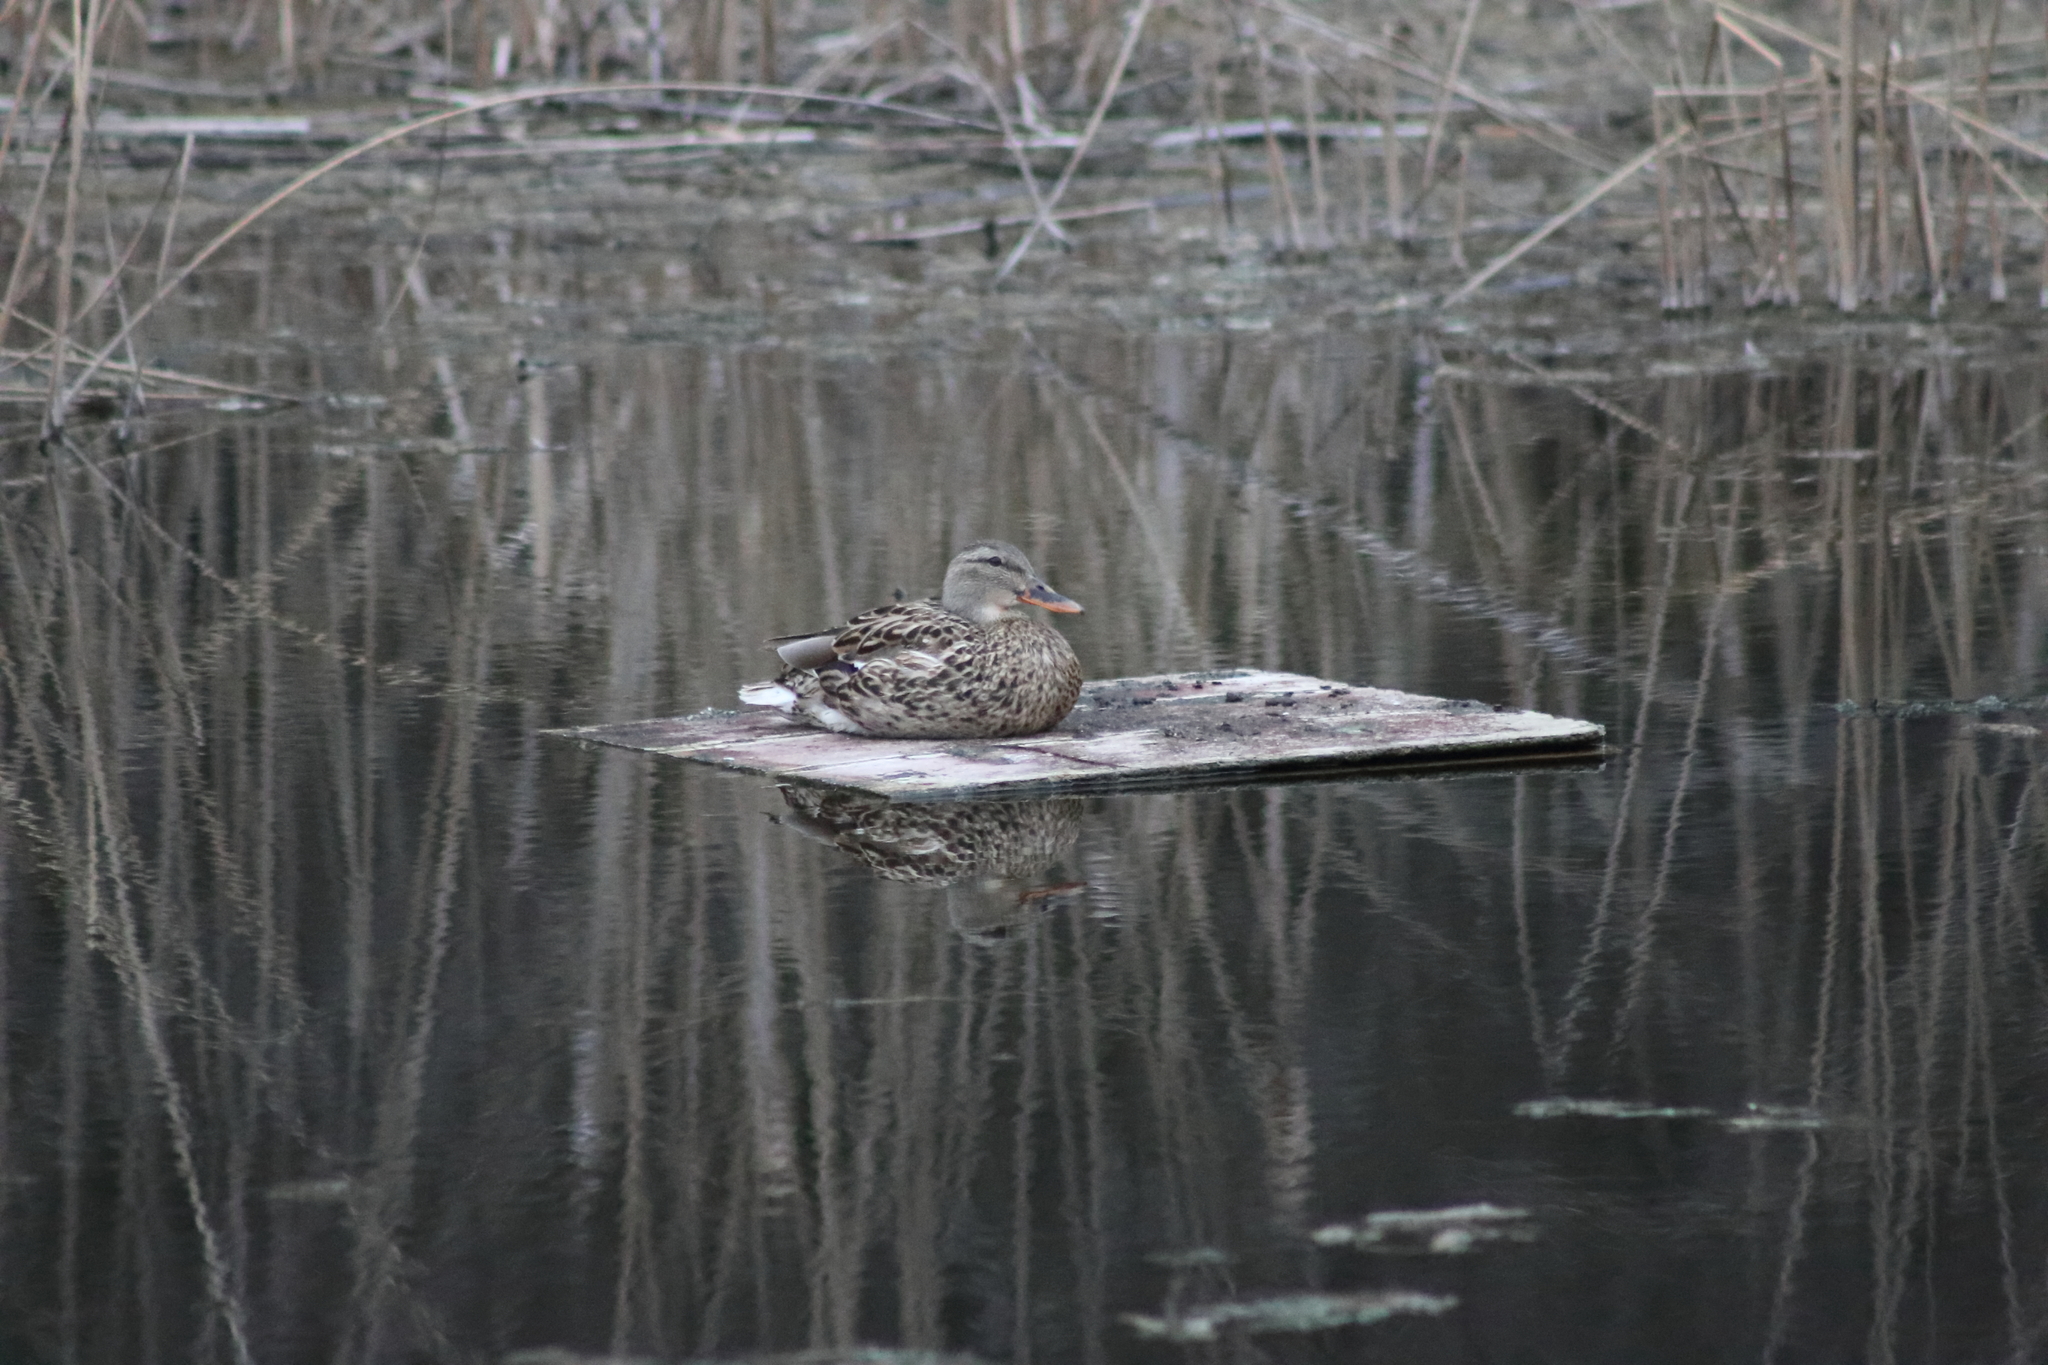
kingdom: Animalia
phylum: Chordata
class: Aves
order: Anseriformes
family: Anatidae
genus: Anas
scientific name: Anas platyrhynchos
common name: Mallard
